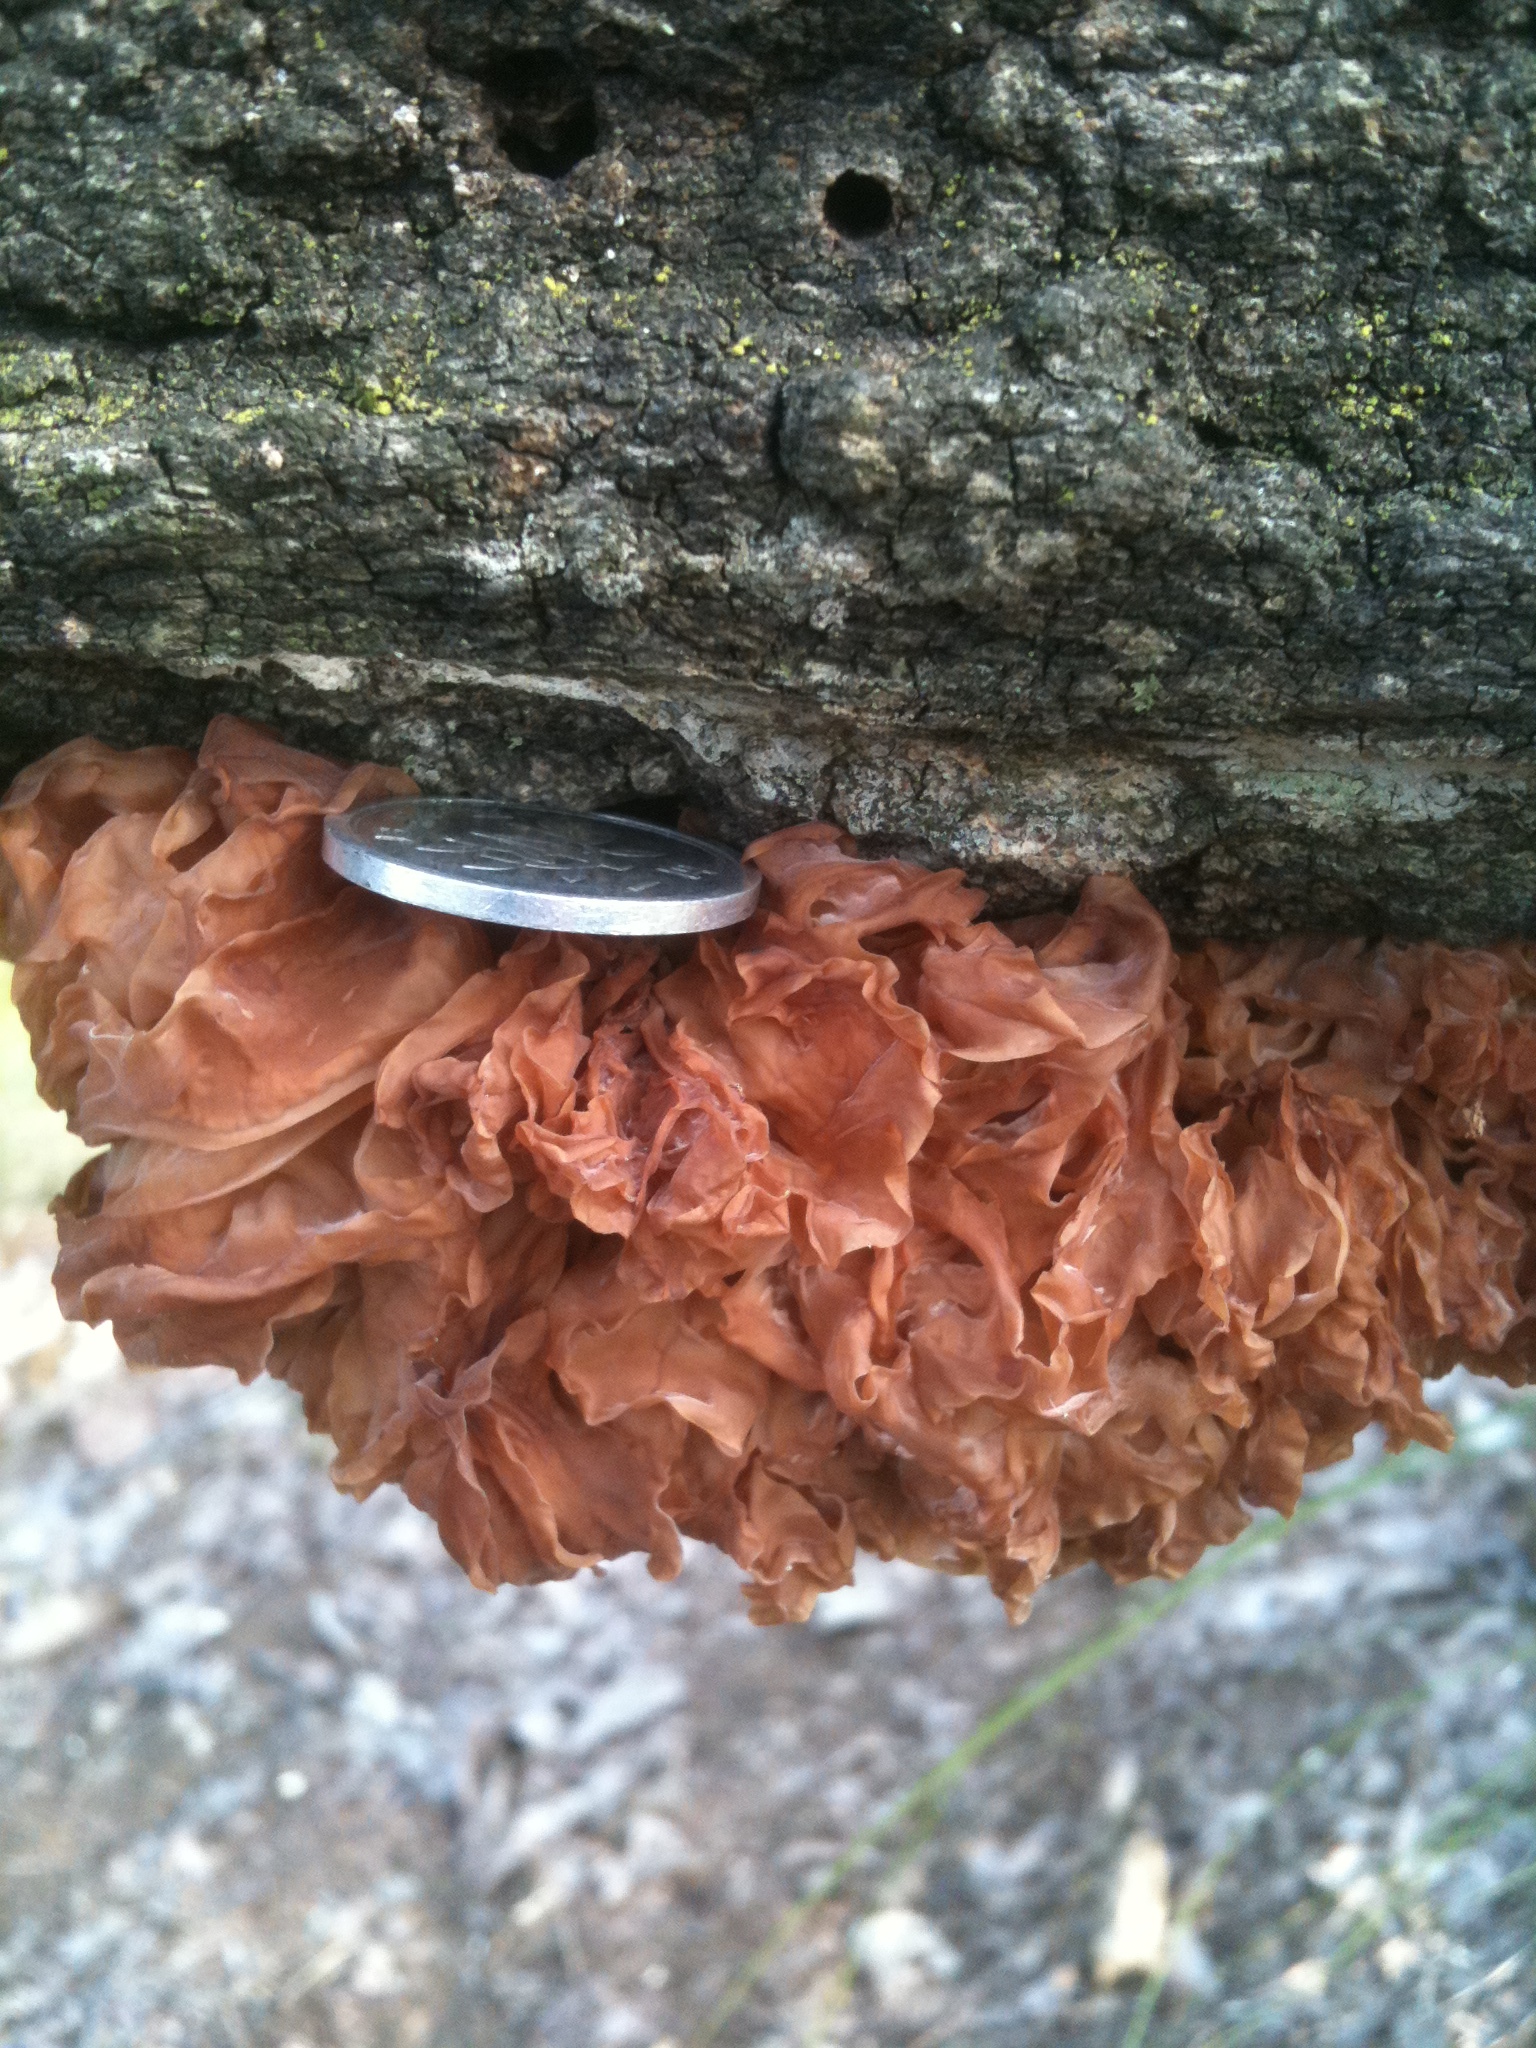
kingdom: Fungi
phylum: Basidiomycota
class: Tremellomycetes
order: Tremellales
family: Tremellaceae
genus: Phaeotremella
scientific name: Phaeotremella foliacea
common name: Leafy brain
